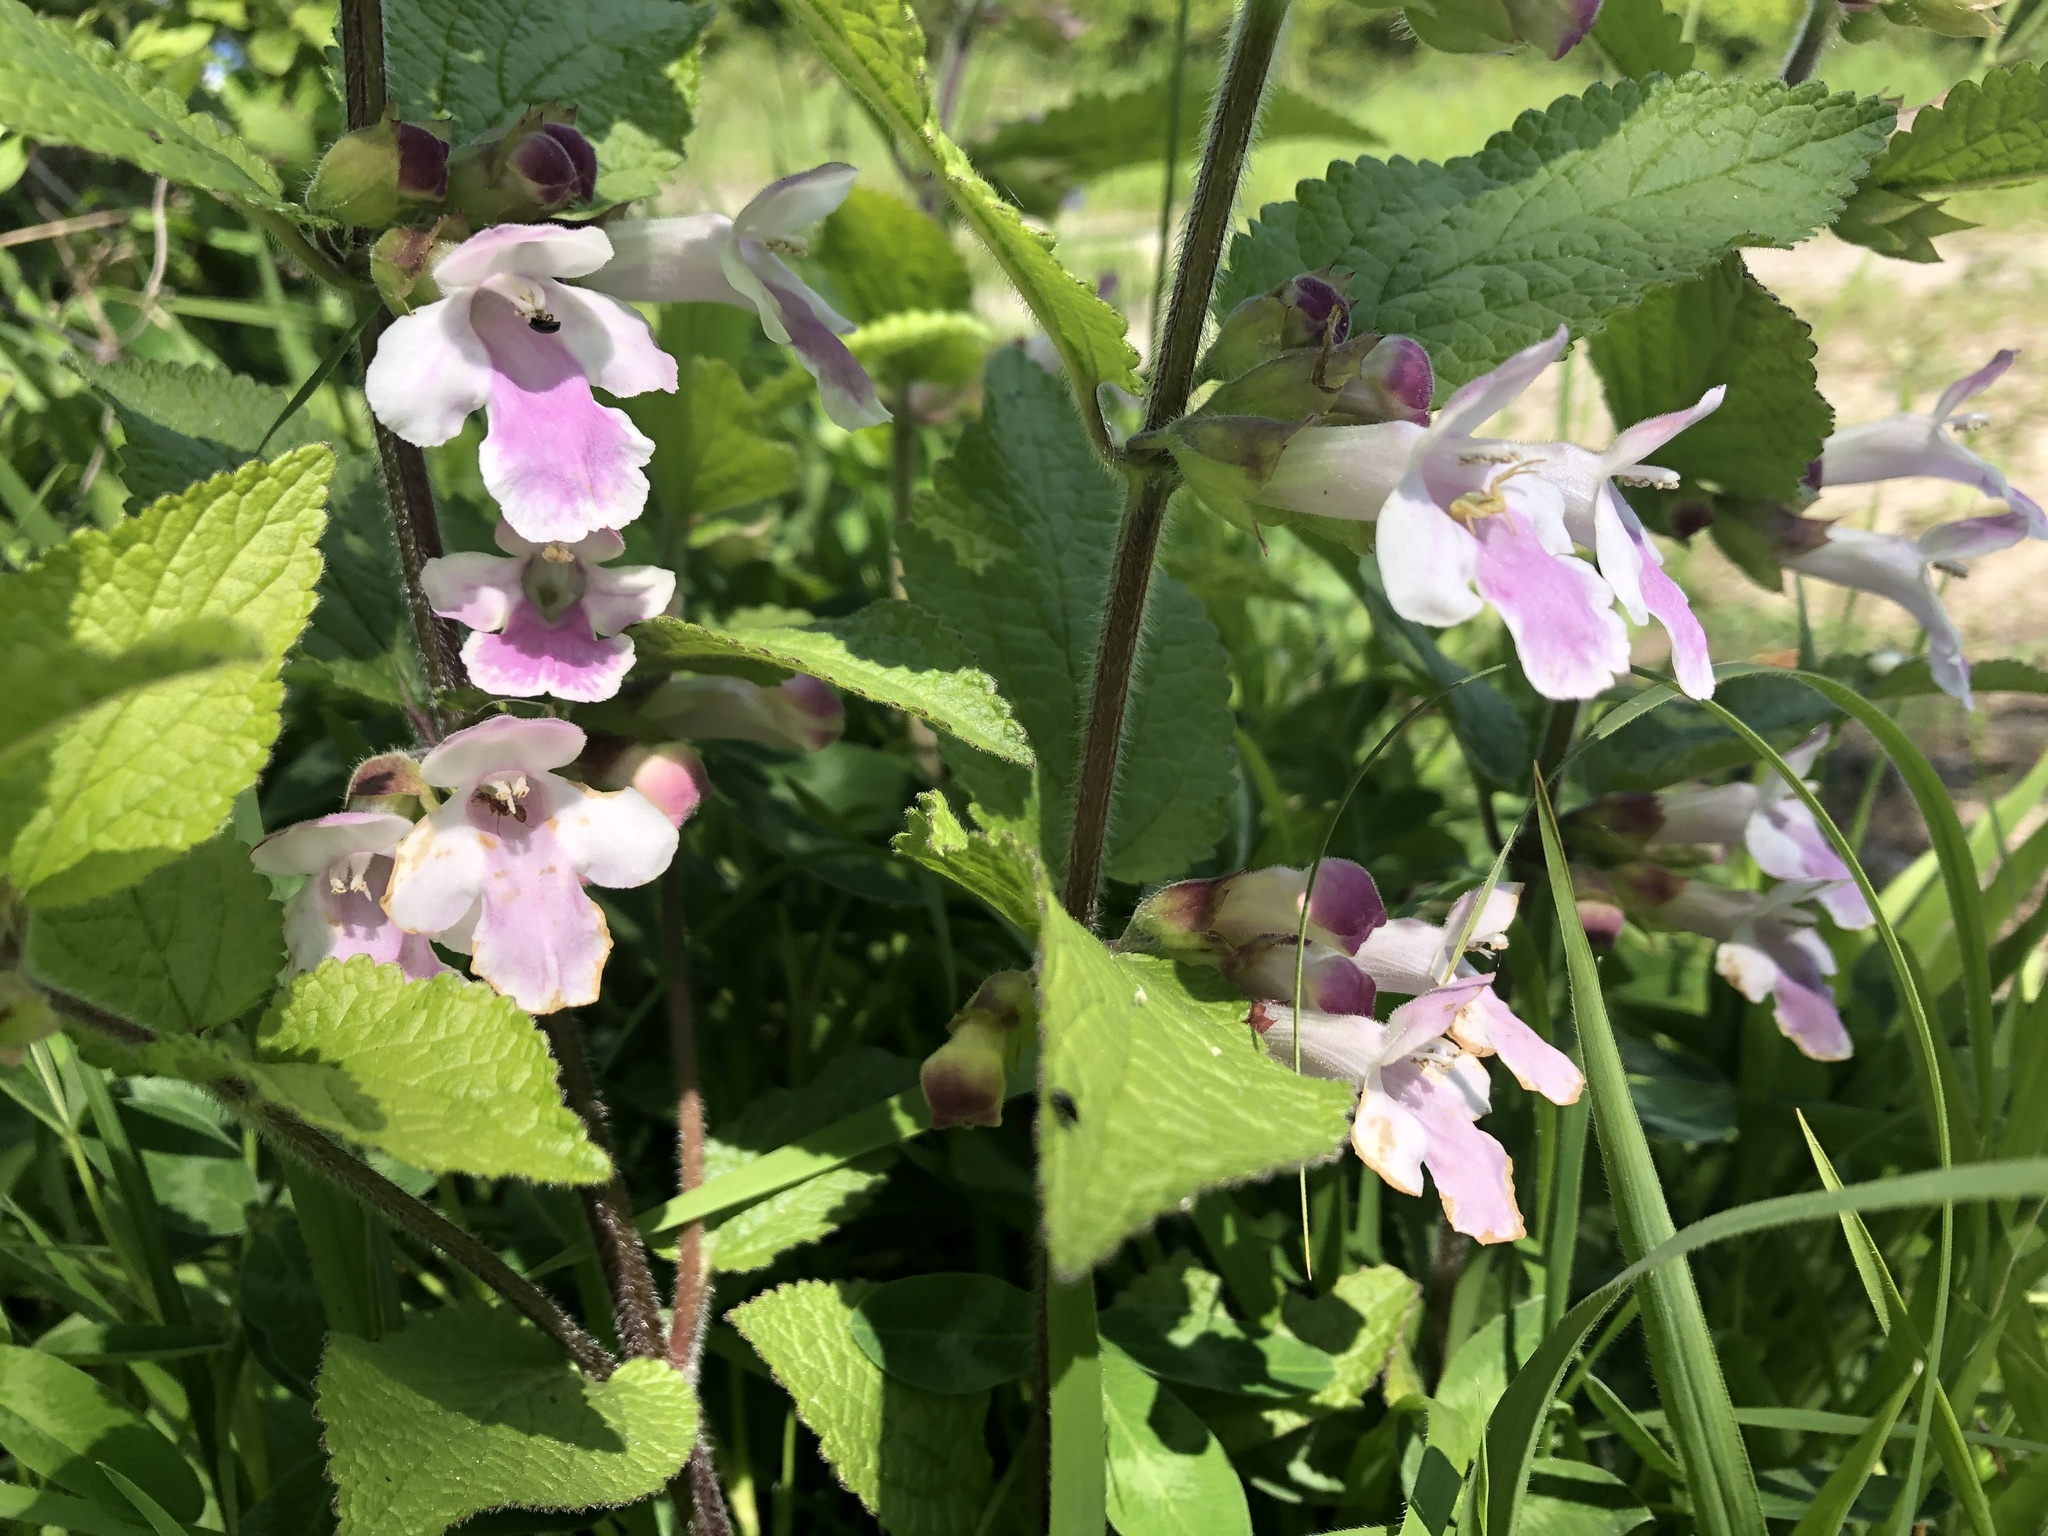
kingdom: Plantae
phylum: Tracheophyta
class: Magnoliopsida
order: Lamiales
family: Lamiaceae
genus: Melittis
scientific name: Melittis melissophyllum
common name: Bastard balm
